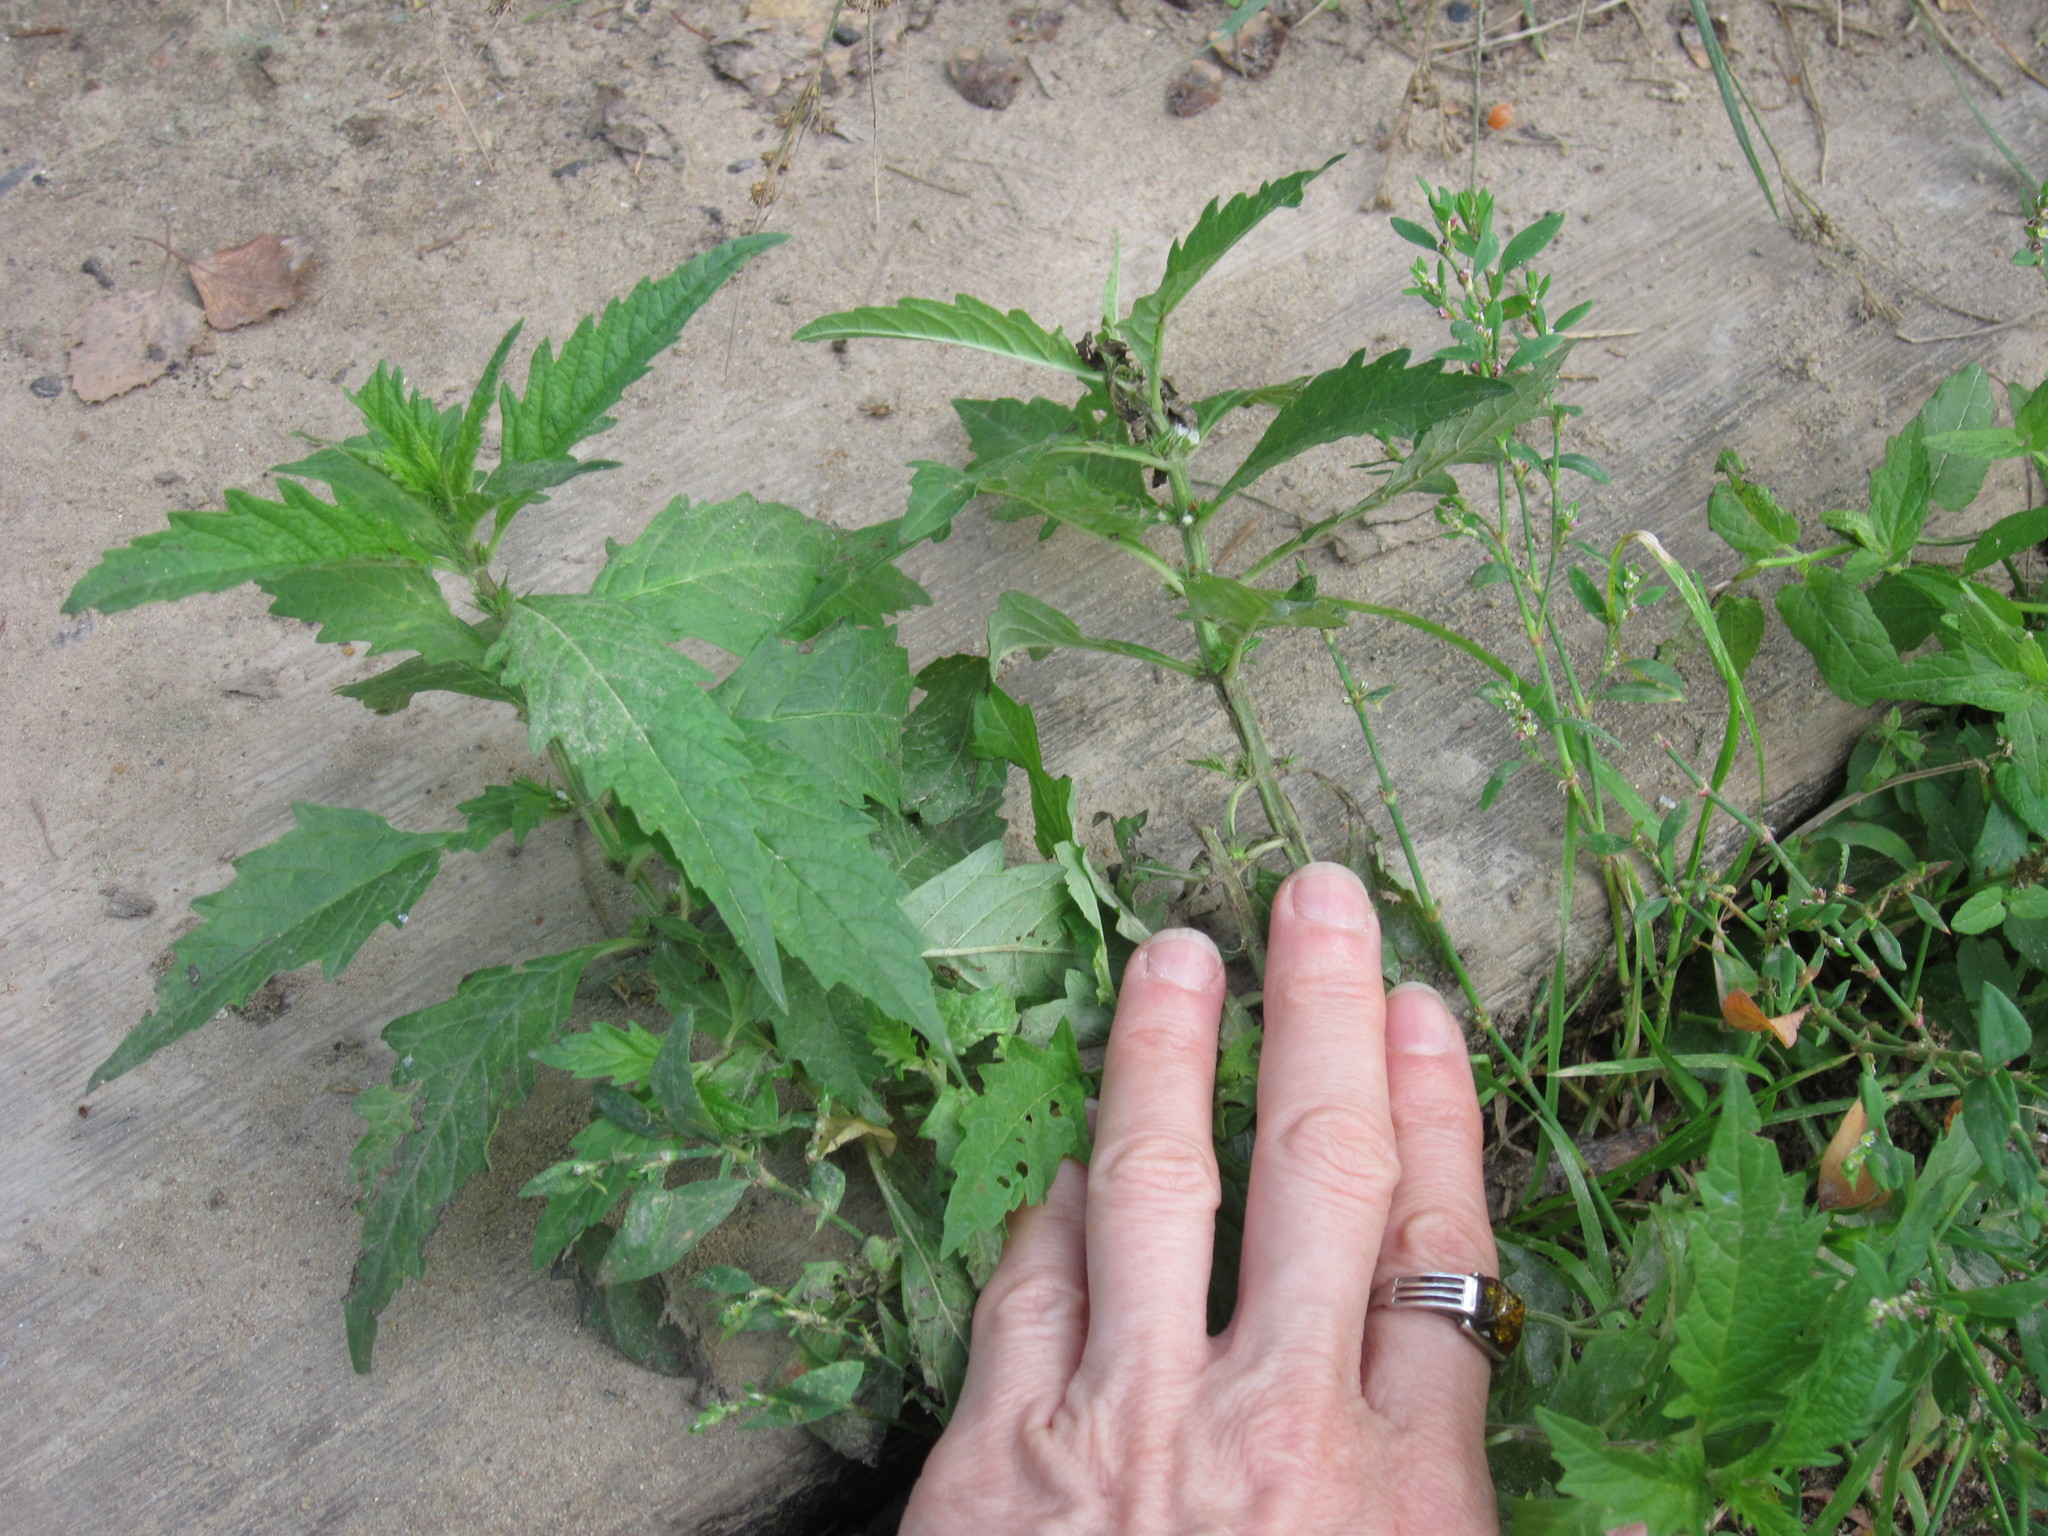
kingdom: Plantae
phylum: Tracheophyta
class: Magnoliopsida
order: Lamiales
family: Lamiaceae
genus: Lycopus
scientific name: Lycopus europaeus
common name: European bugleweed
